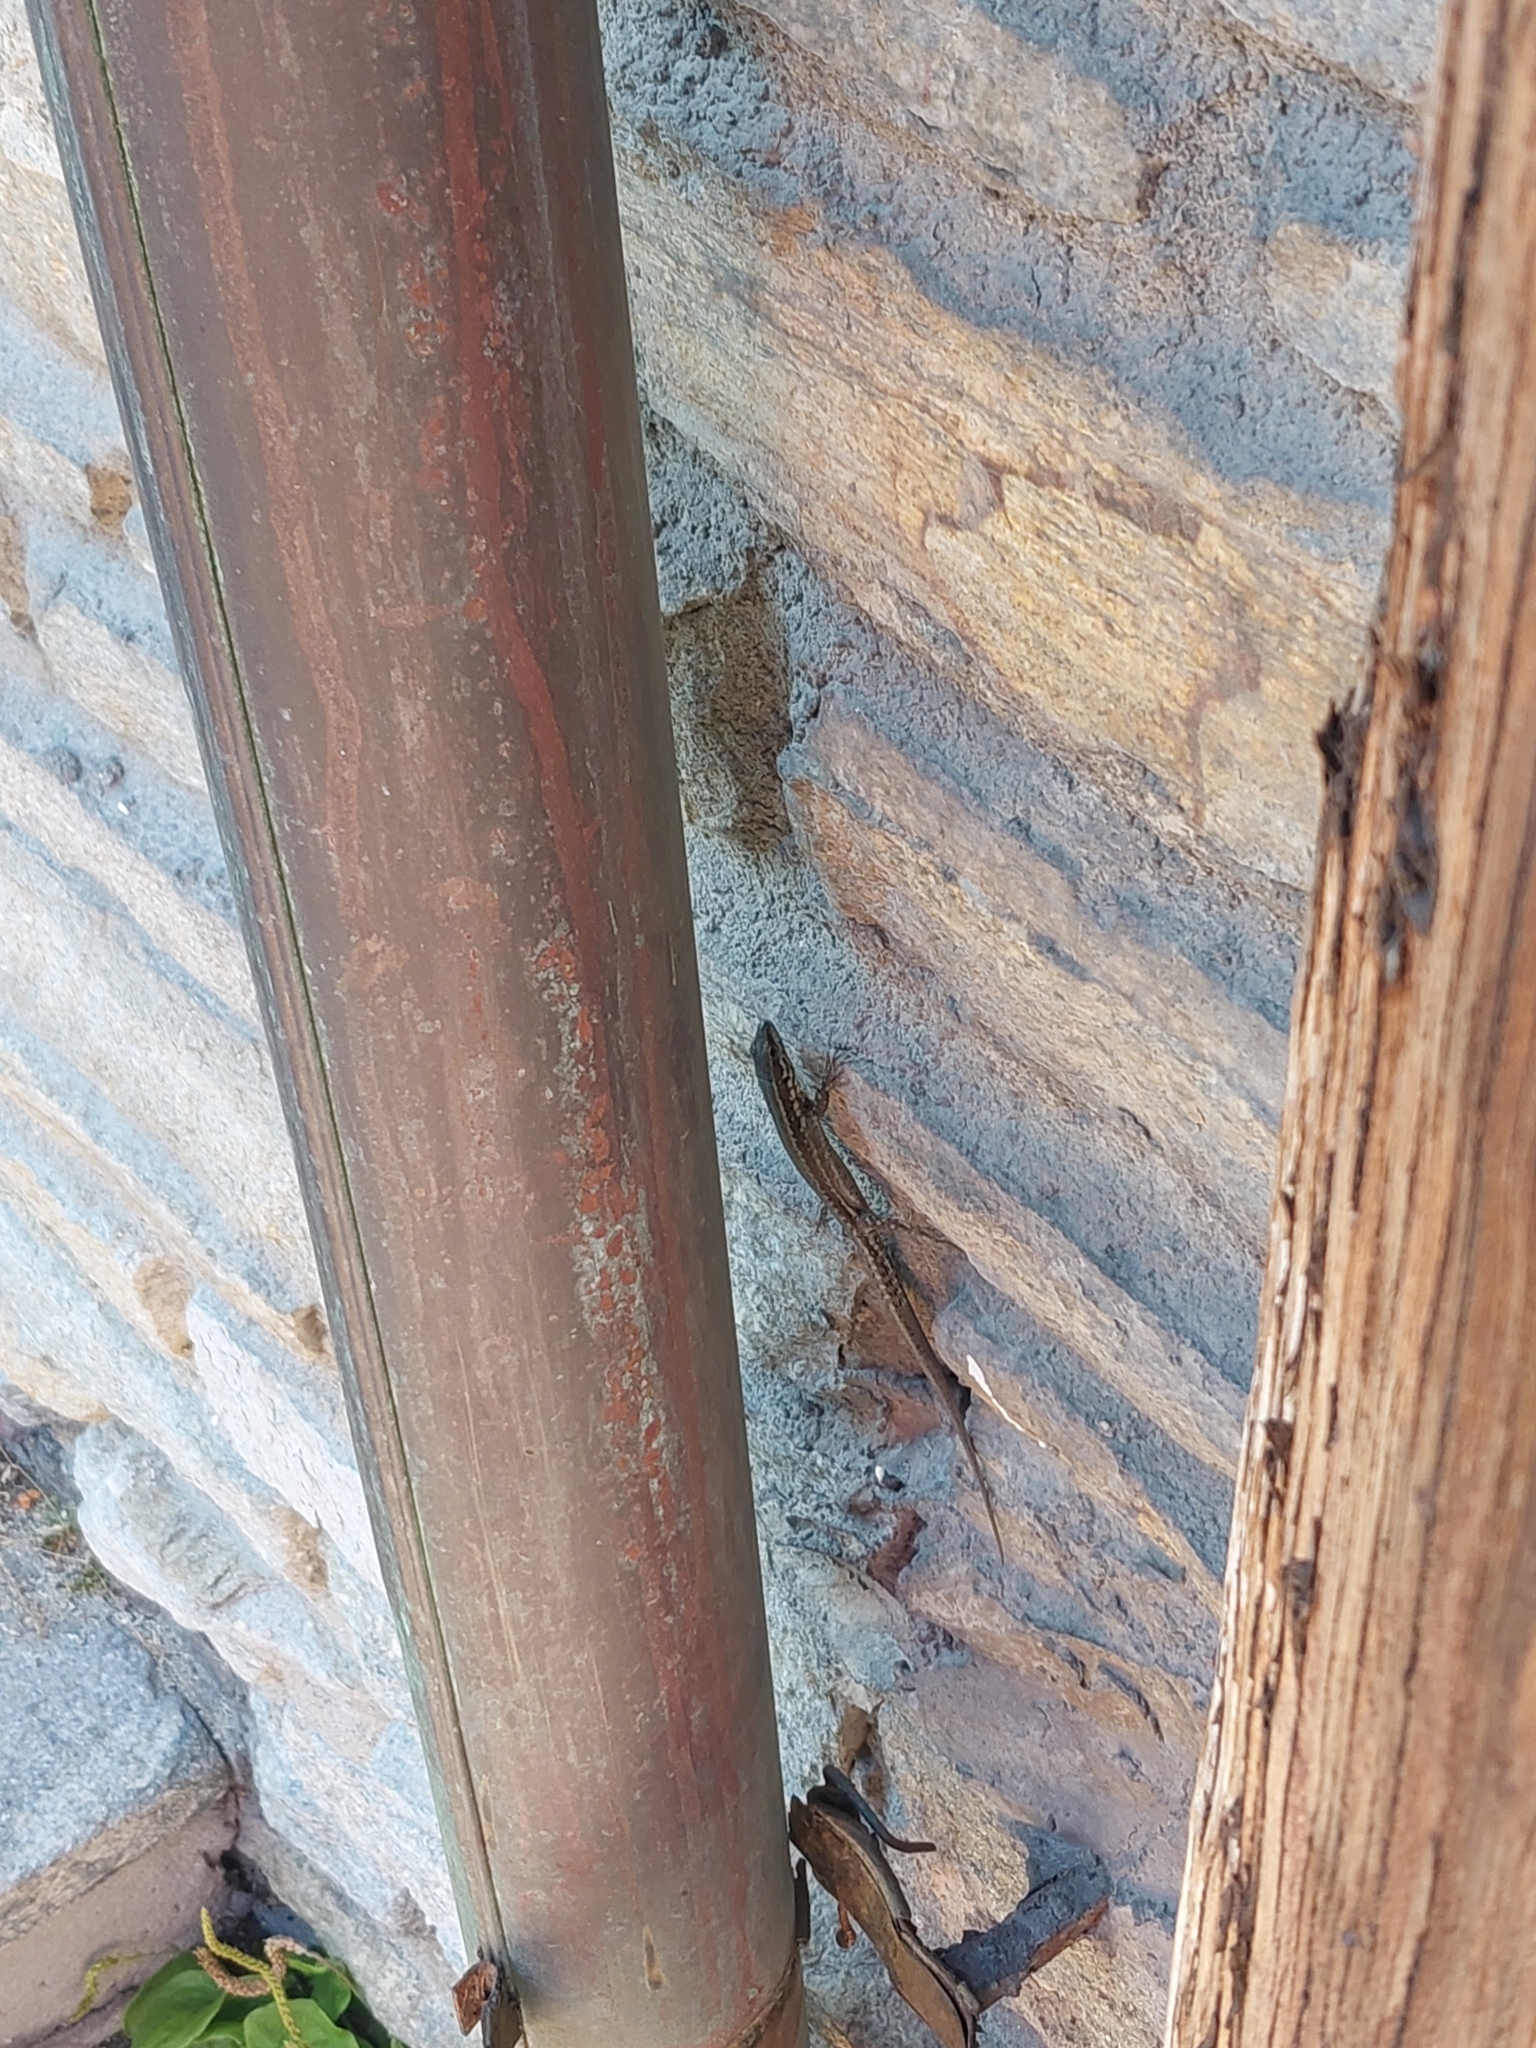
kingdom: Animalia
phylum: Chordata
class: Squamata
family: Lacertidae
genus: Podarcis
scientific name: Podarcis muralis
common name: Common wall lizard
